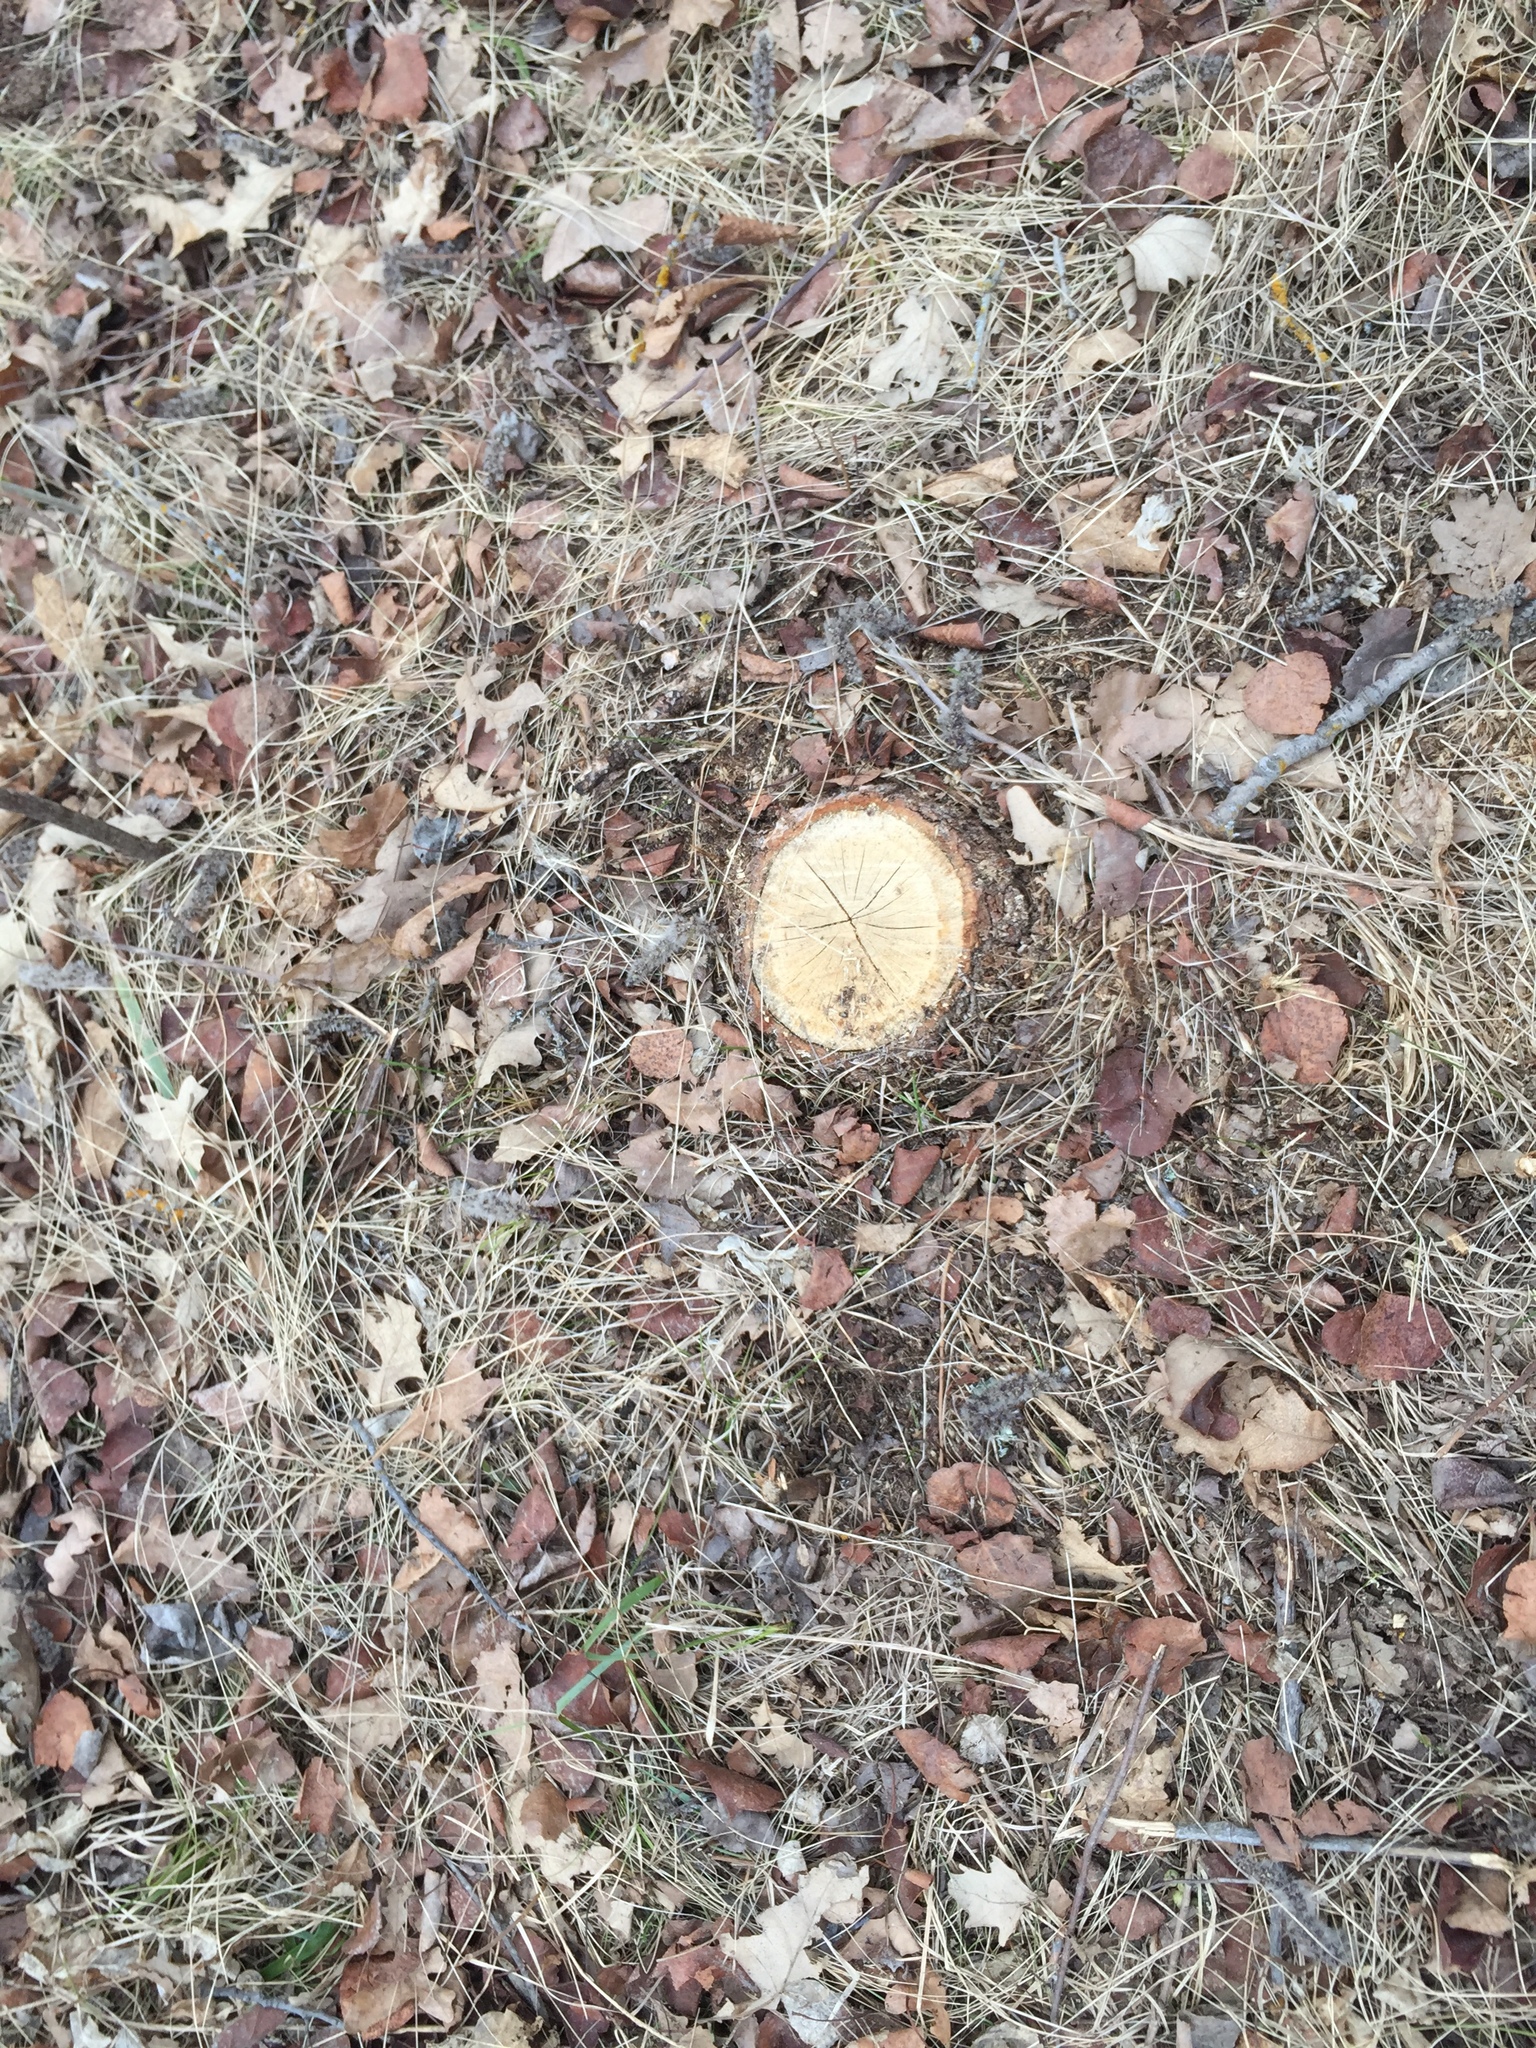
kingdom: Plantae
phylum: Tracheophyta
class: Magnoliopsida
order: Fagales
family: Fagaceae
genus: Quercus
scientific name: Quercus macrocarpa
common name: Bur oak
